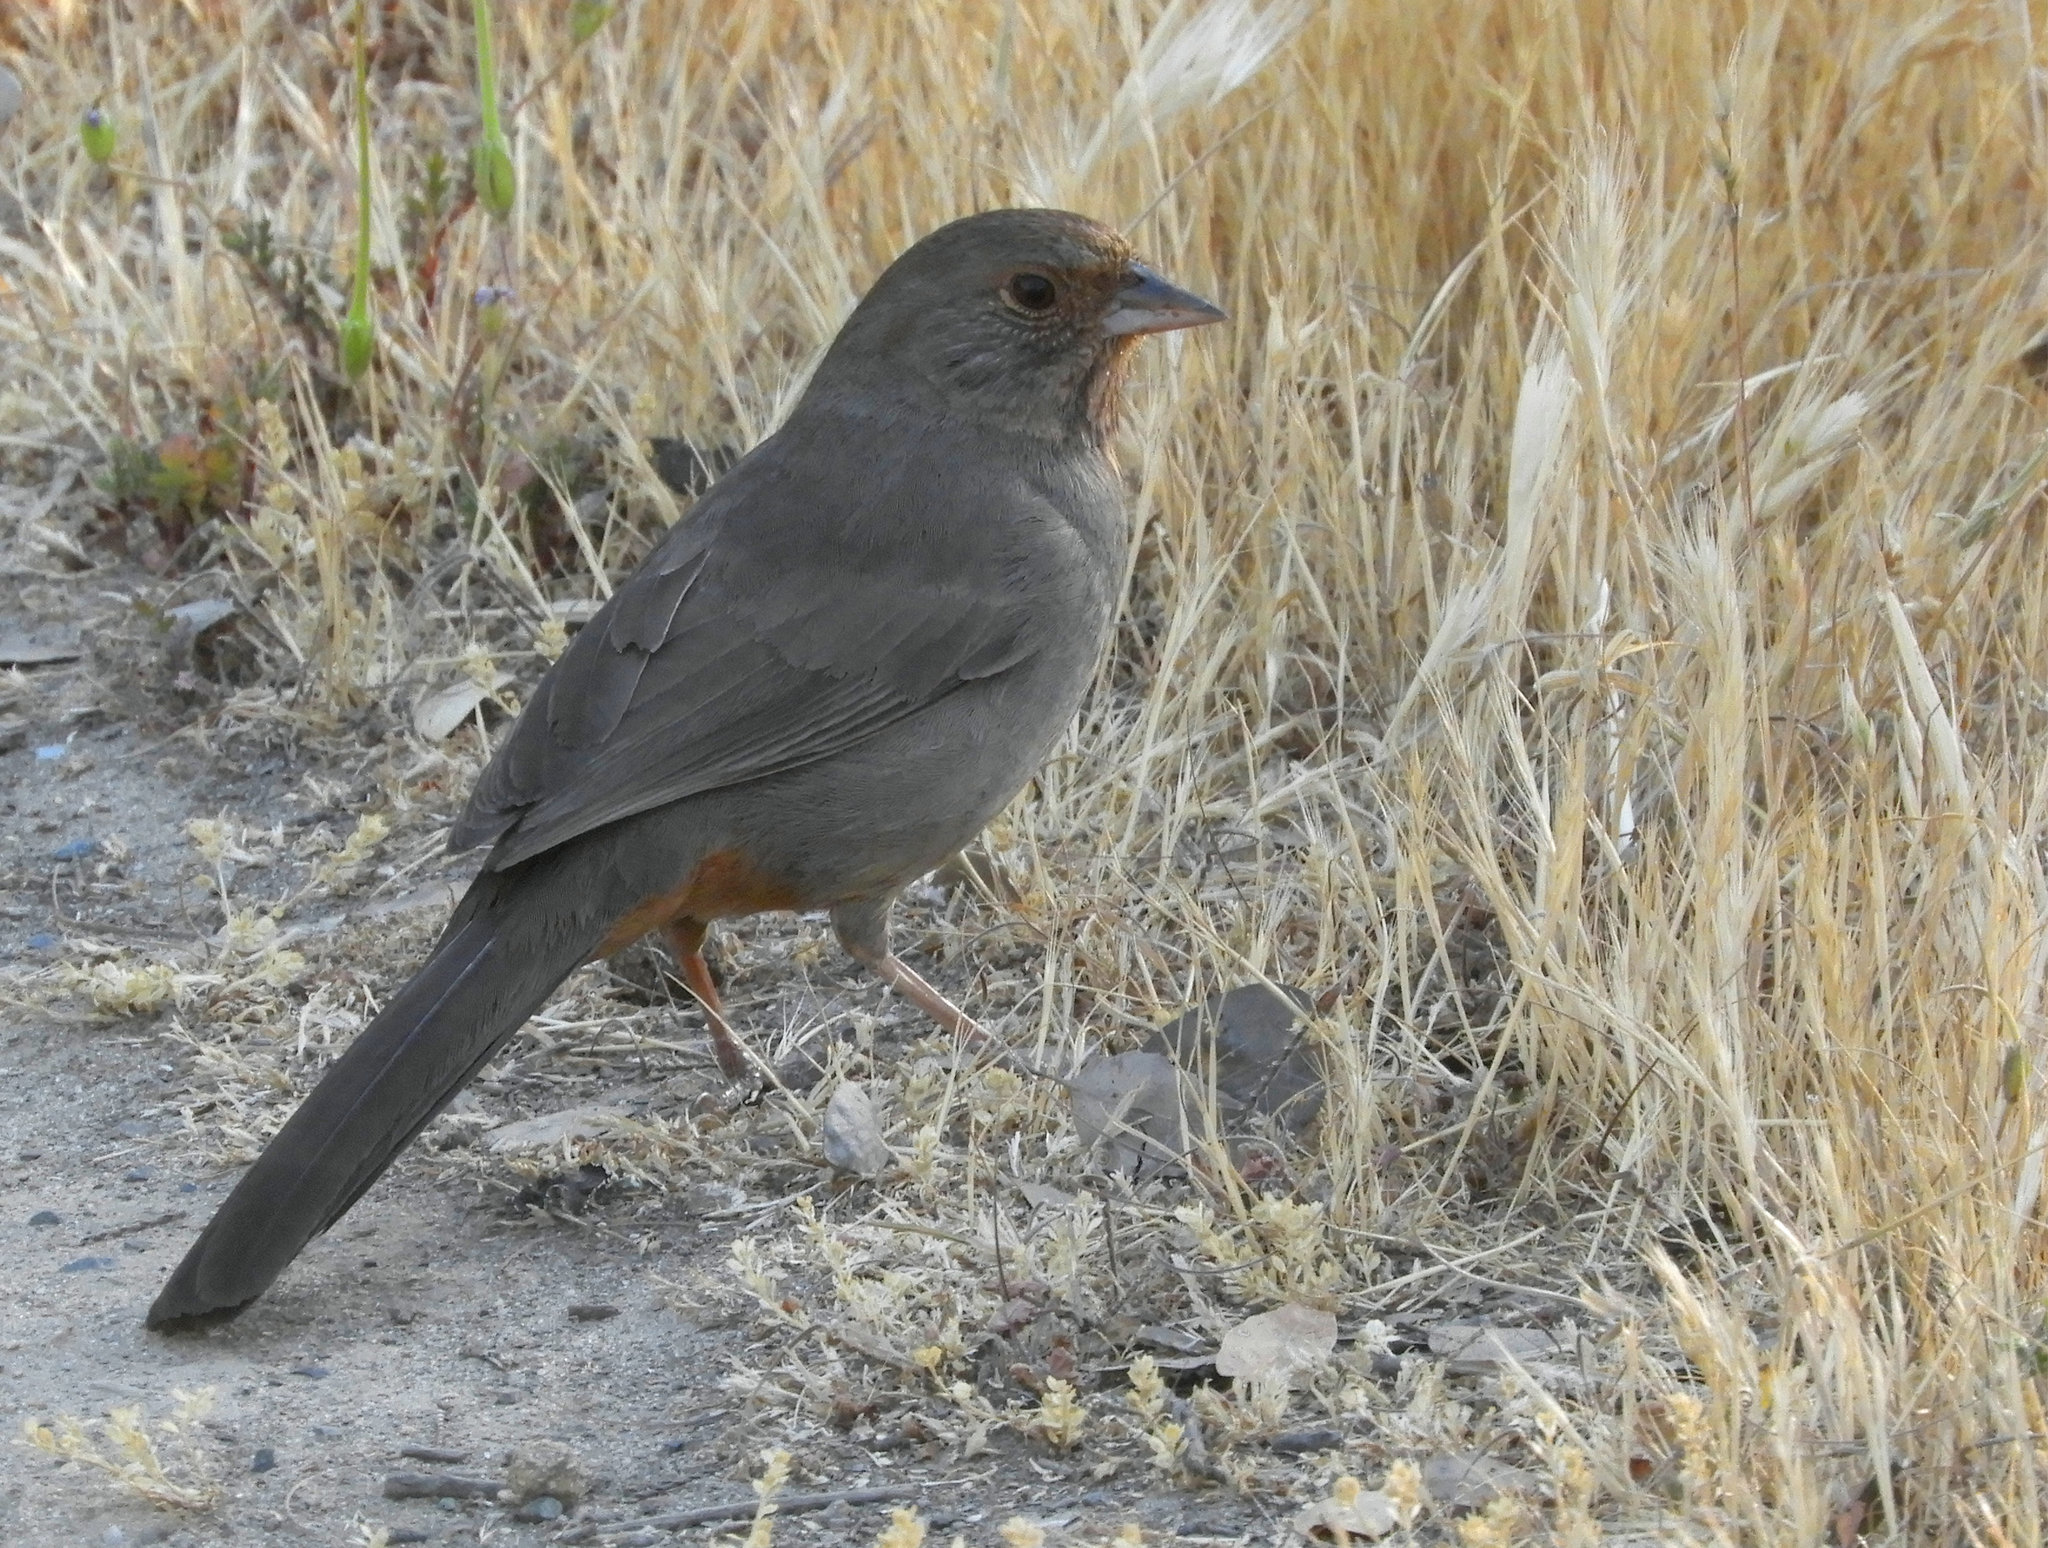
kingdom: Animalia
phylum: Chordata
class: Aves
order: Passeriformes
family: Passerellidae
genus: Melozone
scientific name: Melozone crissalis
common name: California towhee
